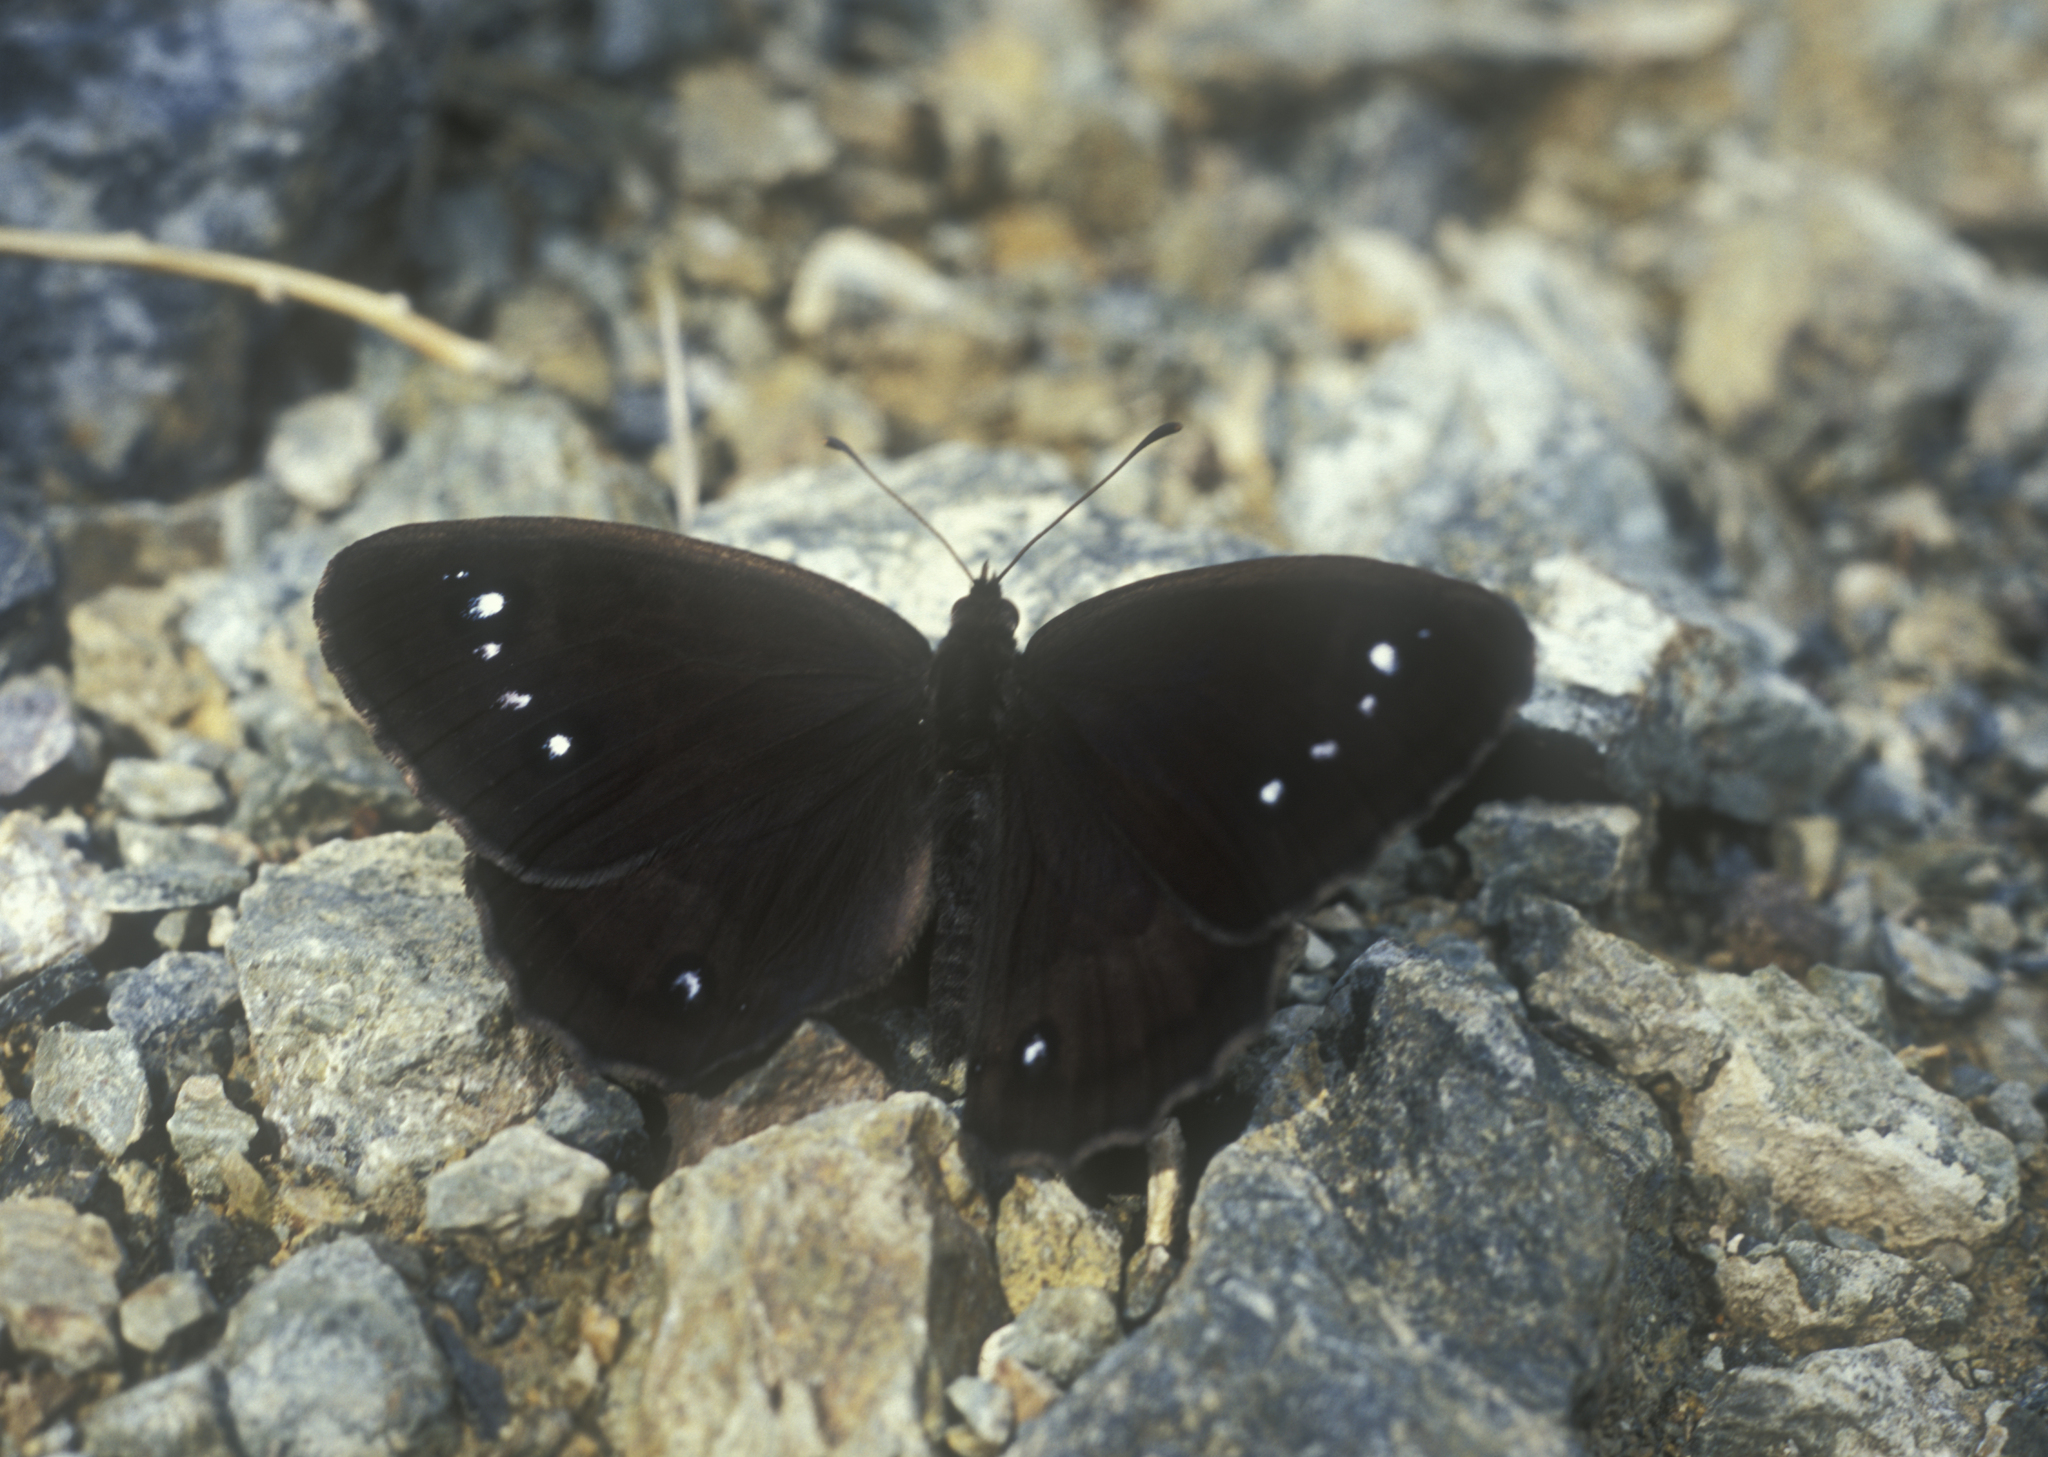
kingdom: Animalia
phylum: Arthropoda
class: Insecta
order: Lepidoptera
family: Nymphalidae
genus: Satyrus
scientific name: Satyrus ferula
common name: Great sooty satyr
